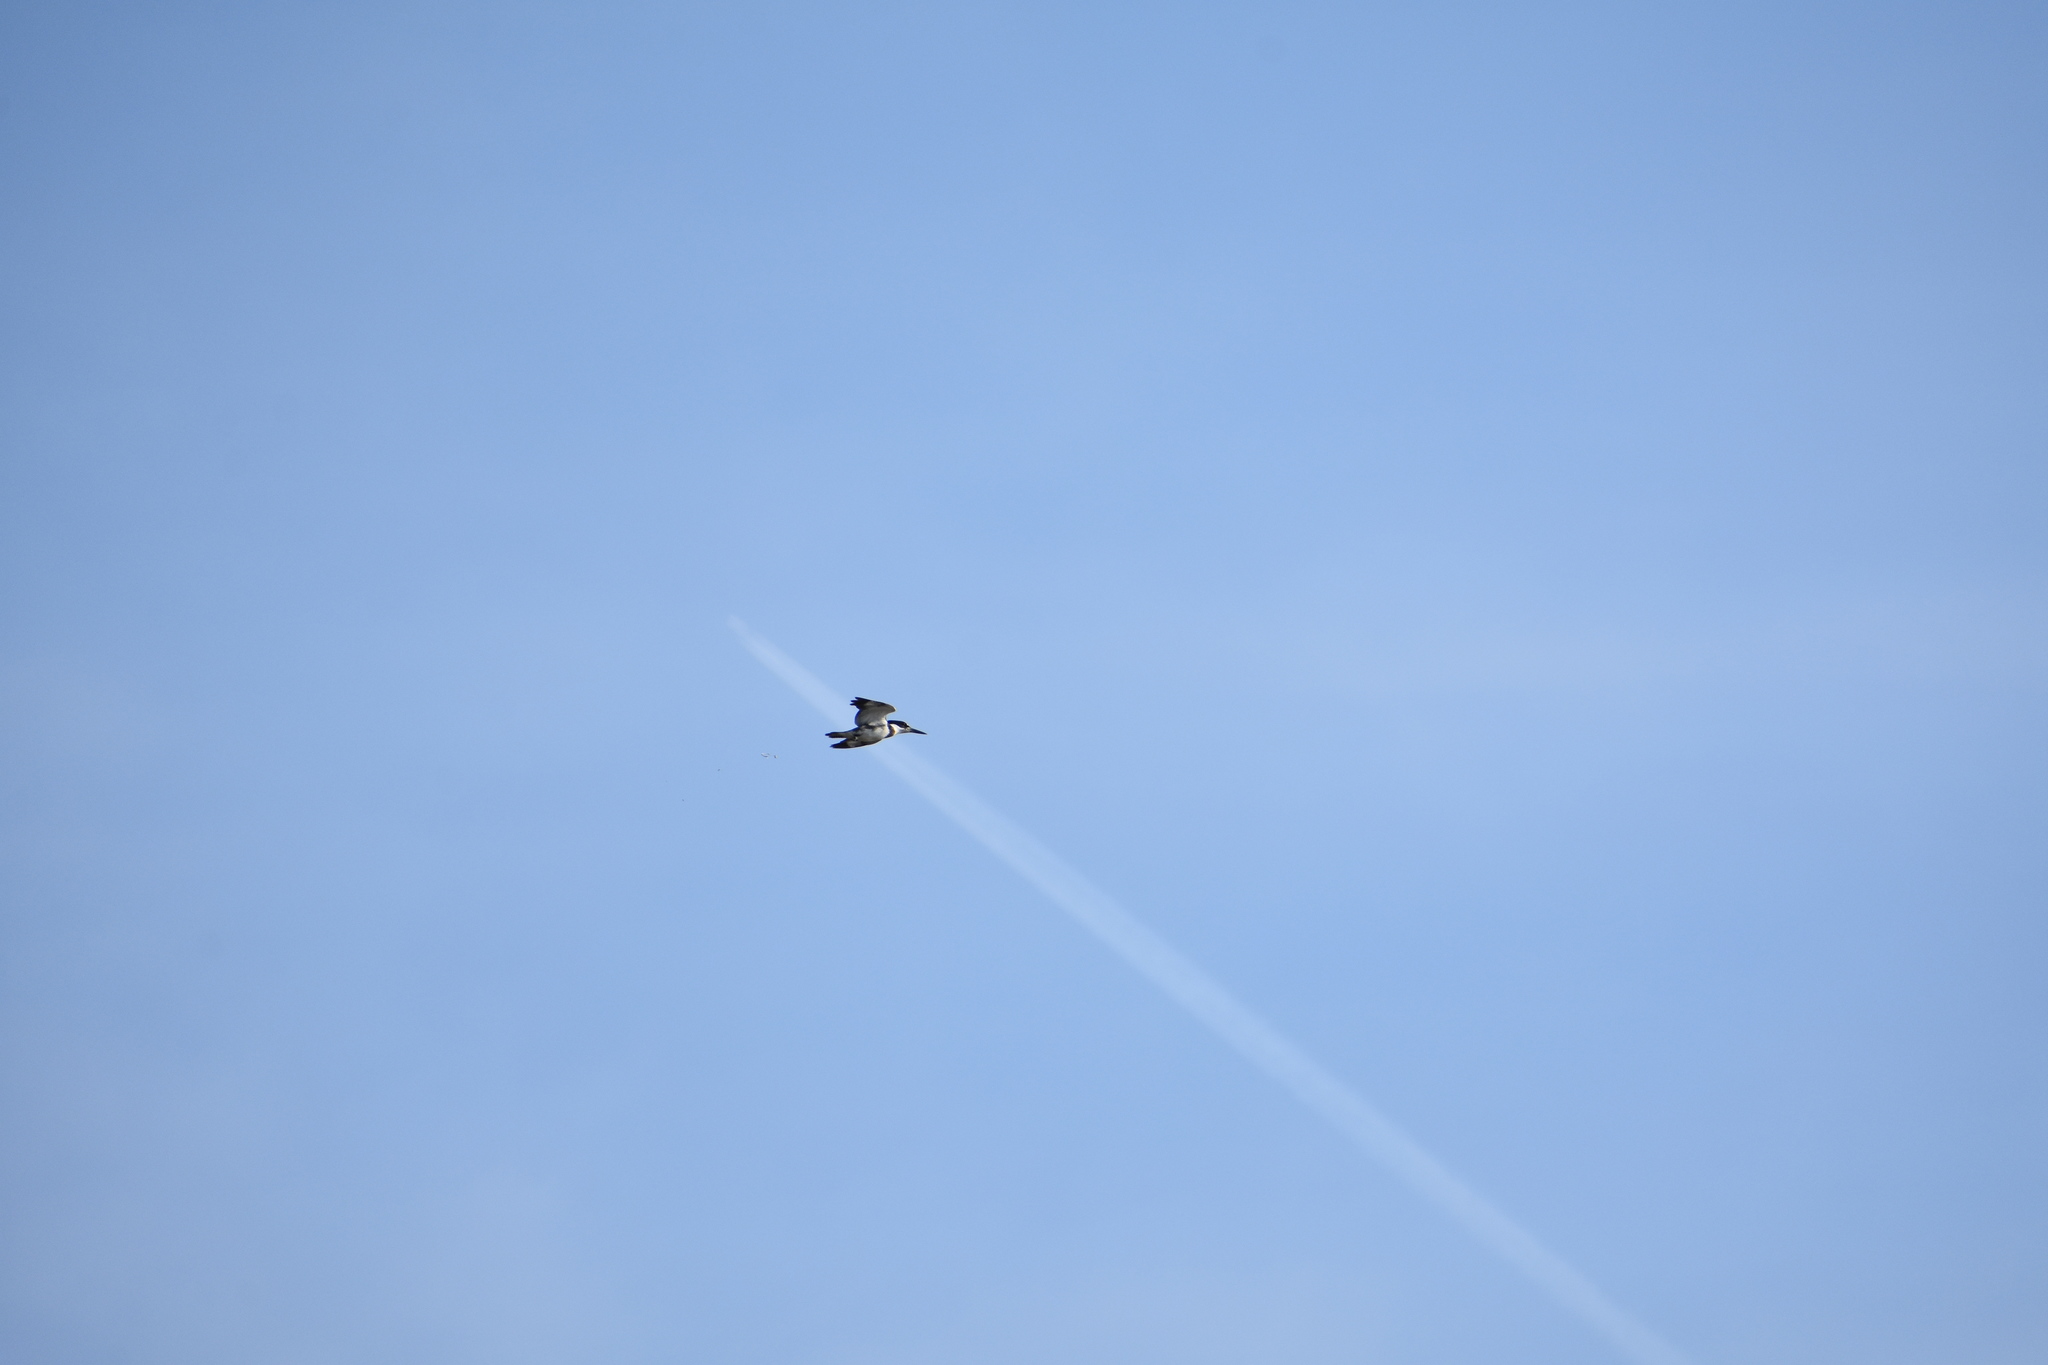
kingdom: Animalia
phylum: Chordata
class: Aves
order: Coraciiformes
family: Alcedinidae
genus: Megaceryle
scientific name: Megaceryle alcyon
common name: Belted kingfisher
